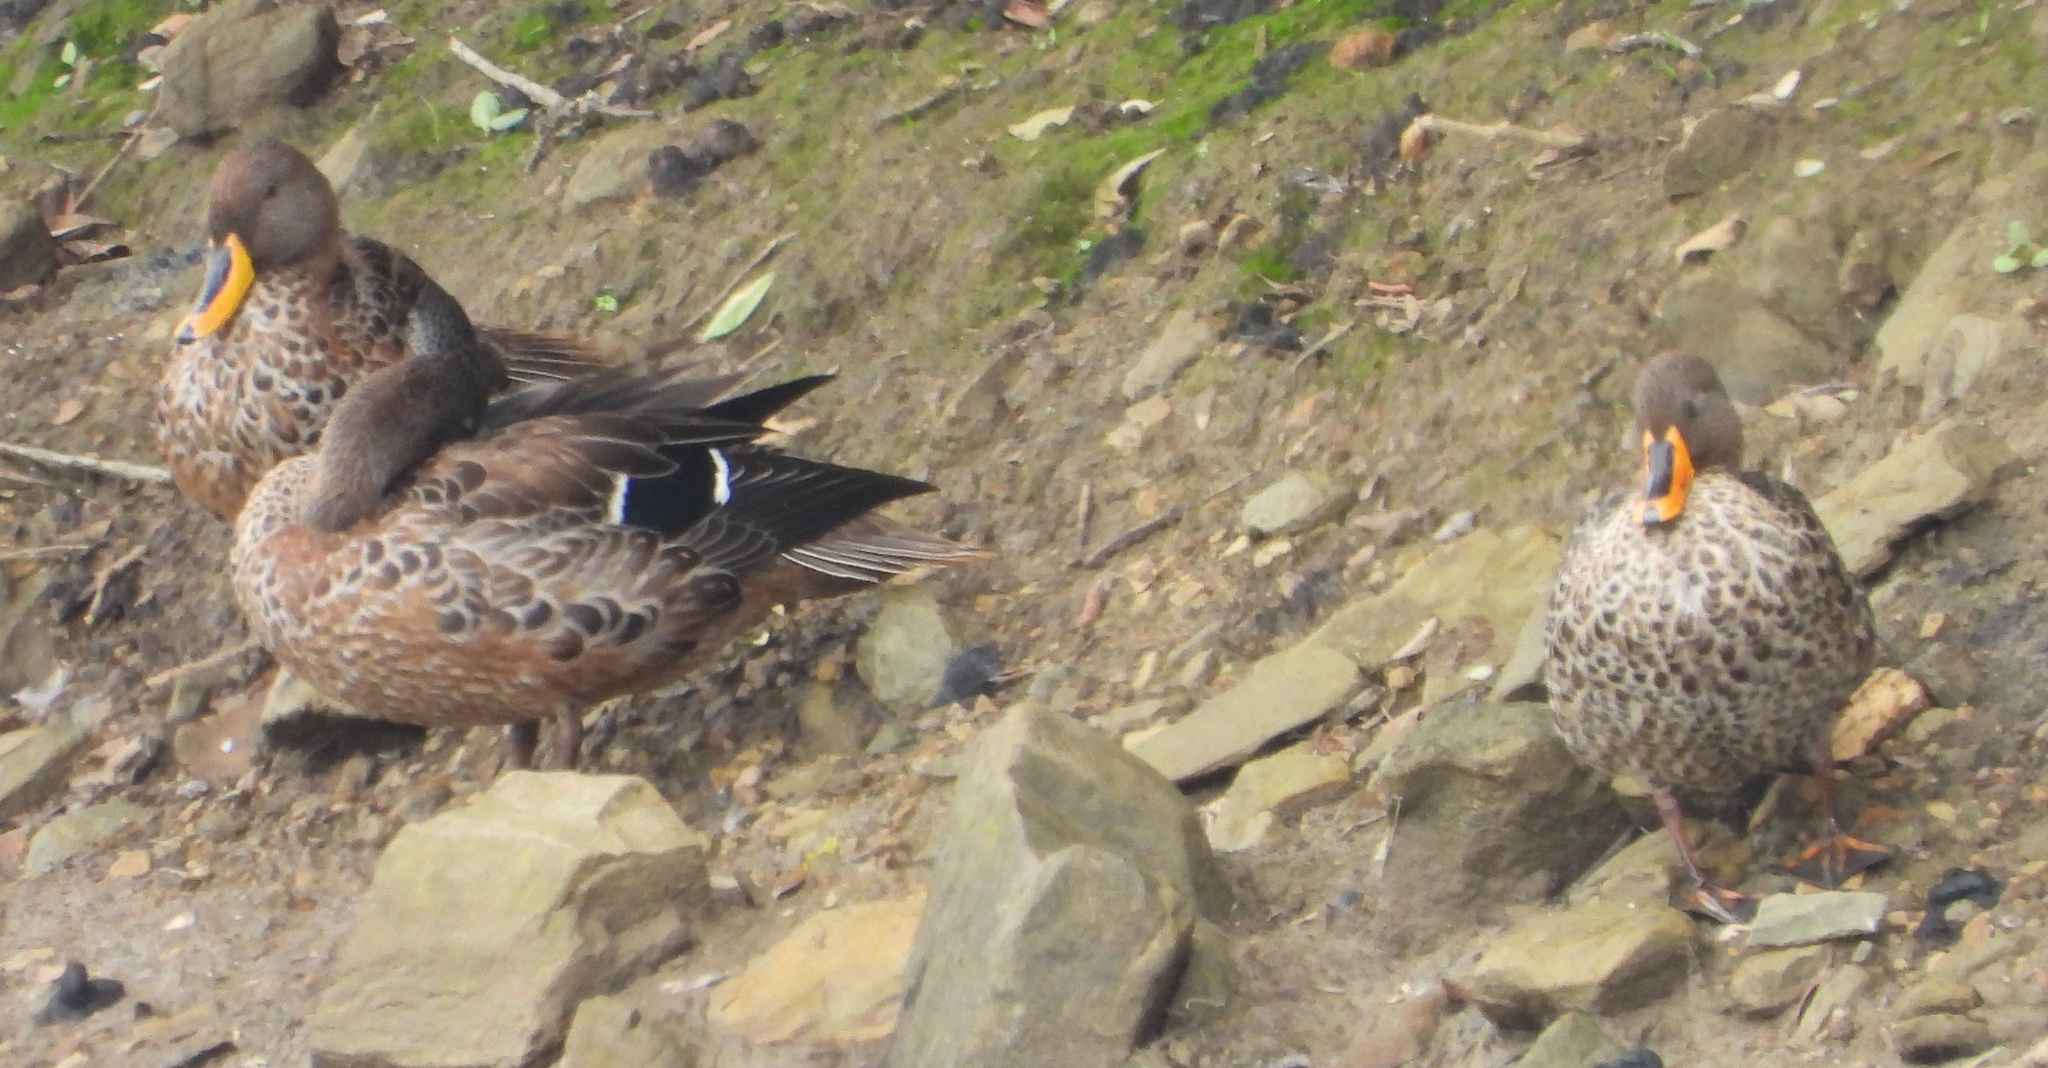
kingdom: Animalia
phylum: Chordata
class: Aves
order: Anseriformes
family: Anatidae
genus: Anas
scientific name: Anas undulata
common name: Yellow-billed duck
